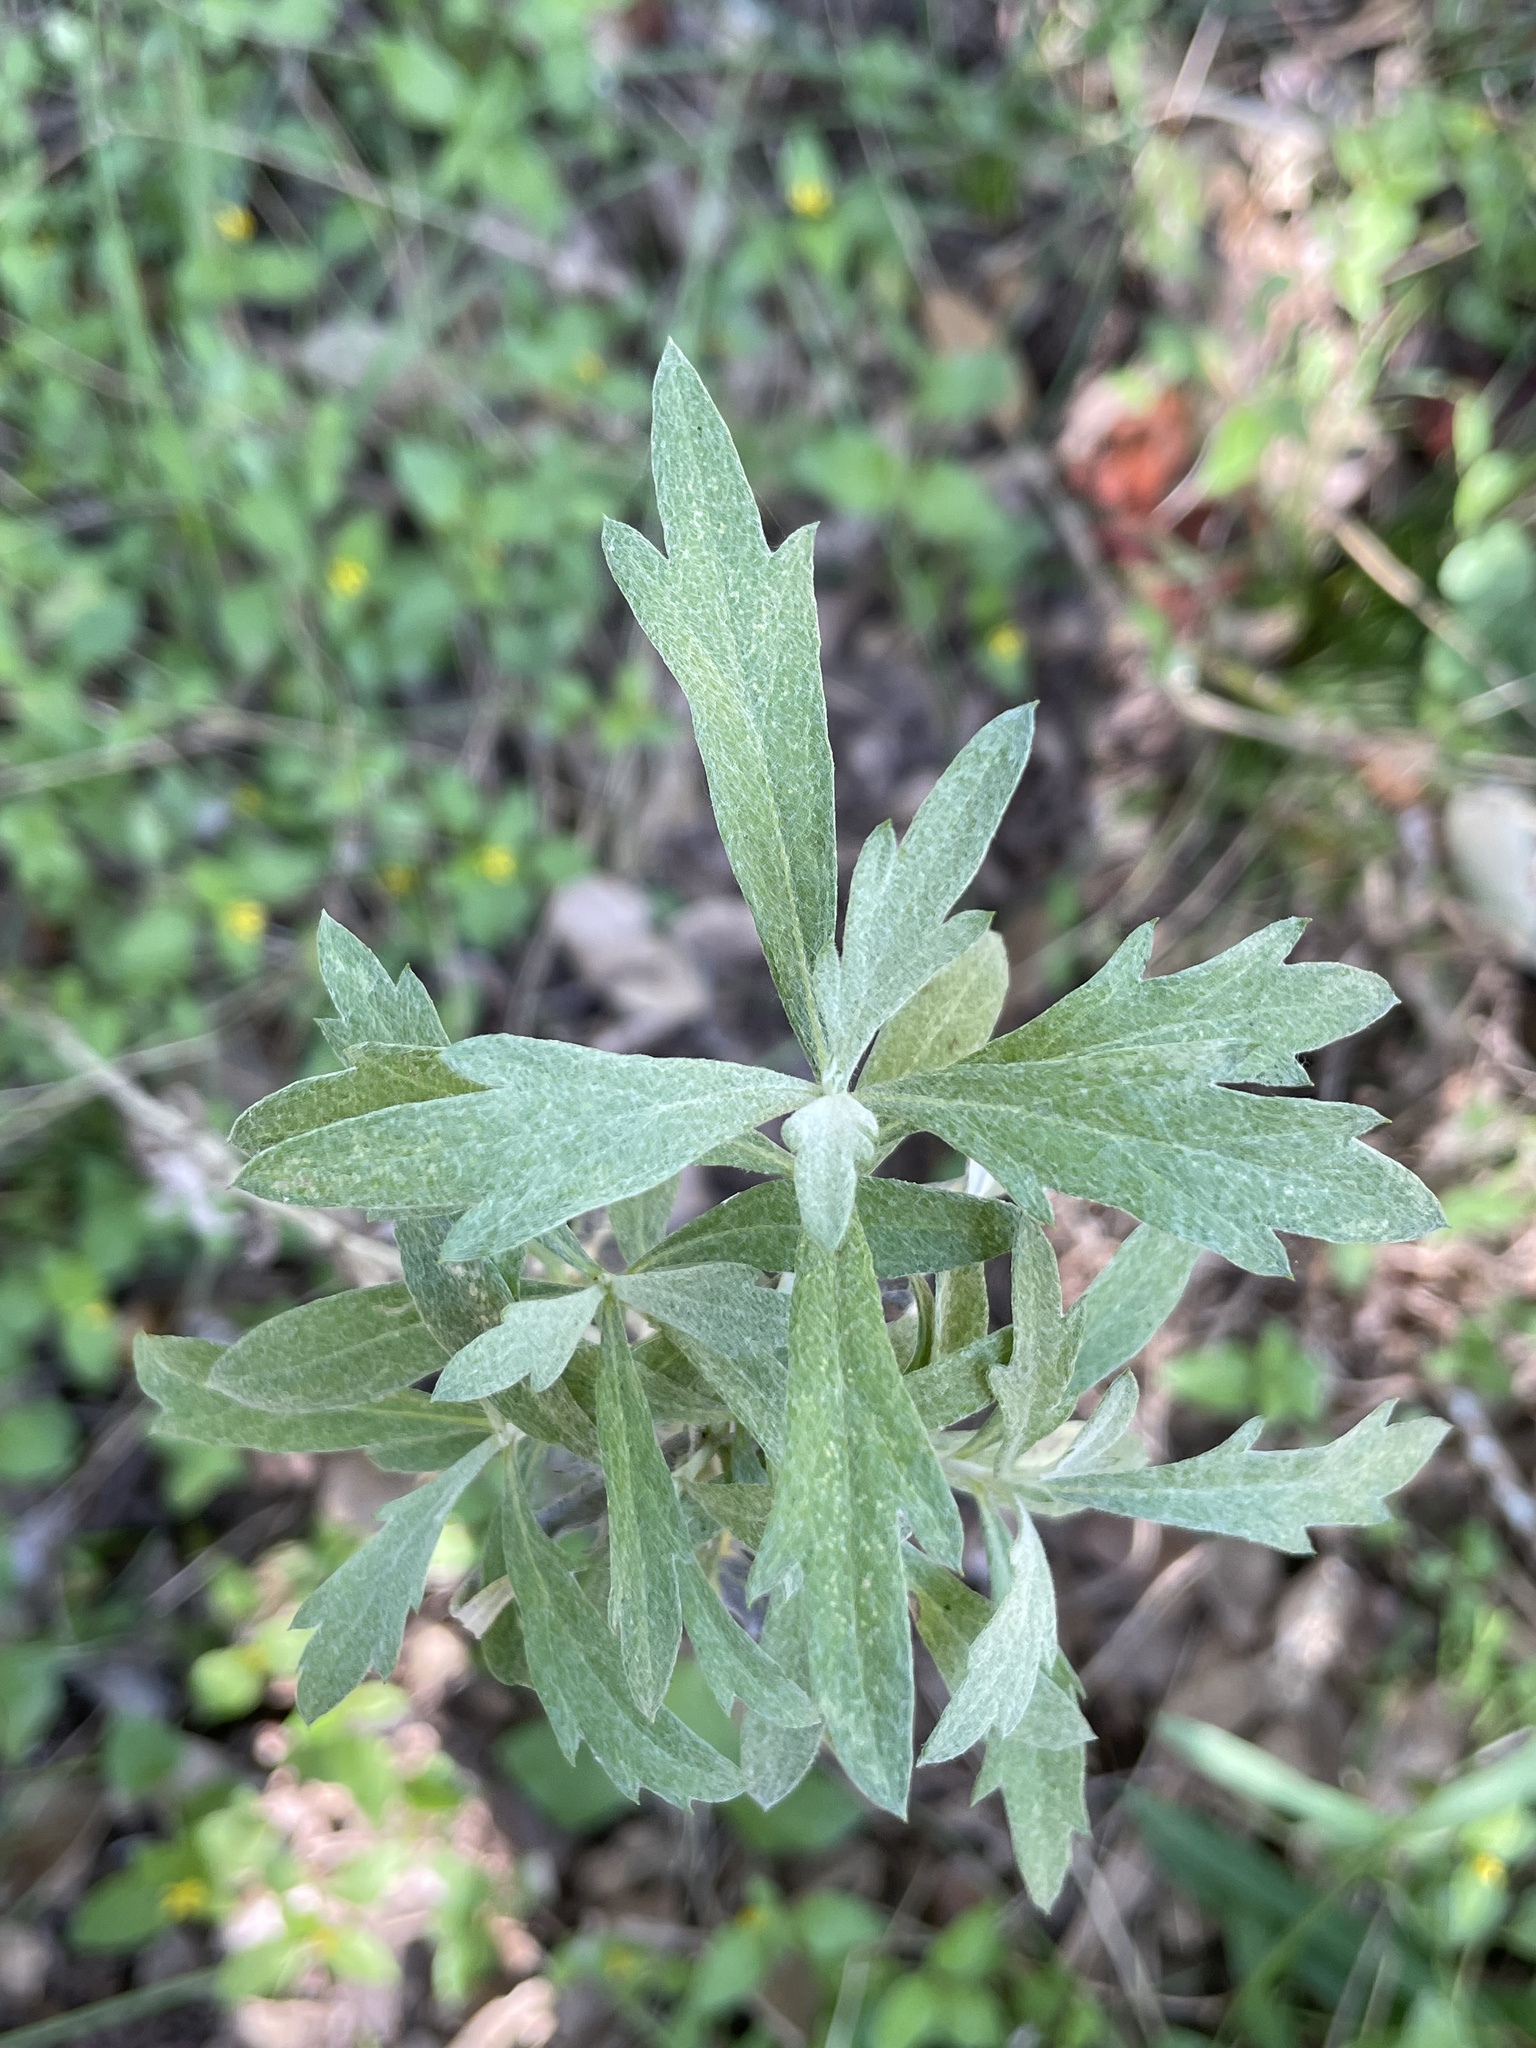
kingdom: Plantae
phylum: Tracheophyta
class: Magnoliopsida
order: Asterales
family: Asteraceae
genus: Artemisia
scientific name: Artemisia ludoviciana
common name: Western mugwort
